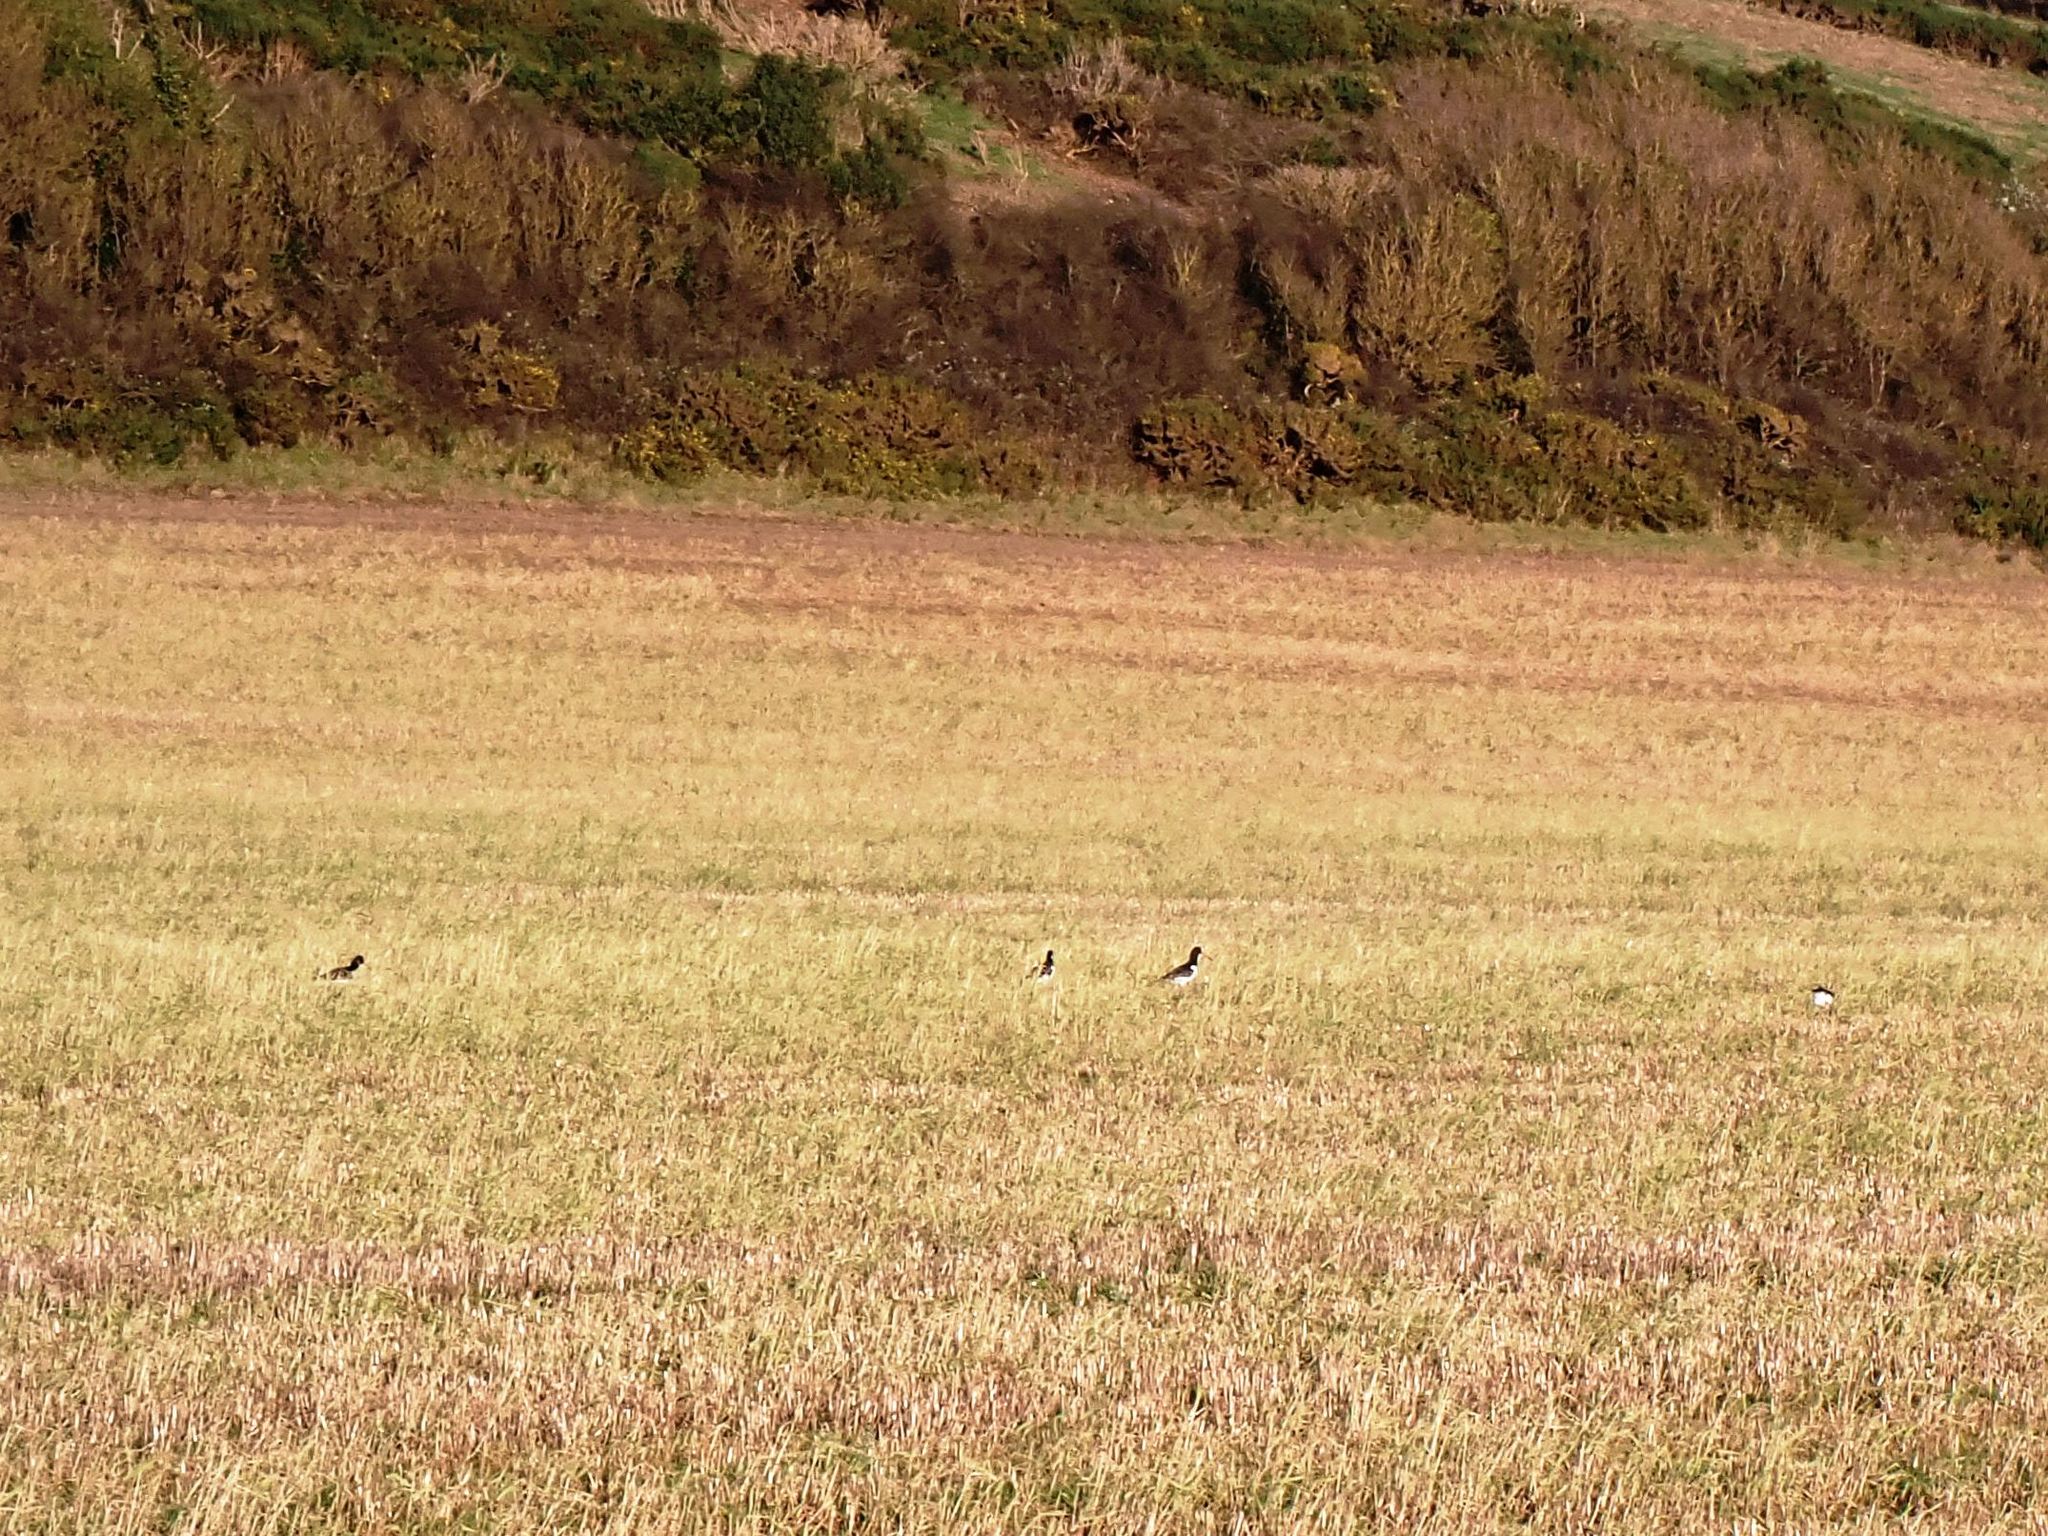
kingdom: Animalia
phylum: Chordata
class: Aves
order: Charadriiformes
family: Haematopodidae
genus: Haematopus
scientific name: Haematopus ostralegus
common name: Eurasian oystercatcher
